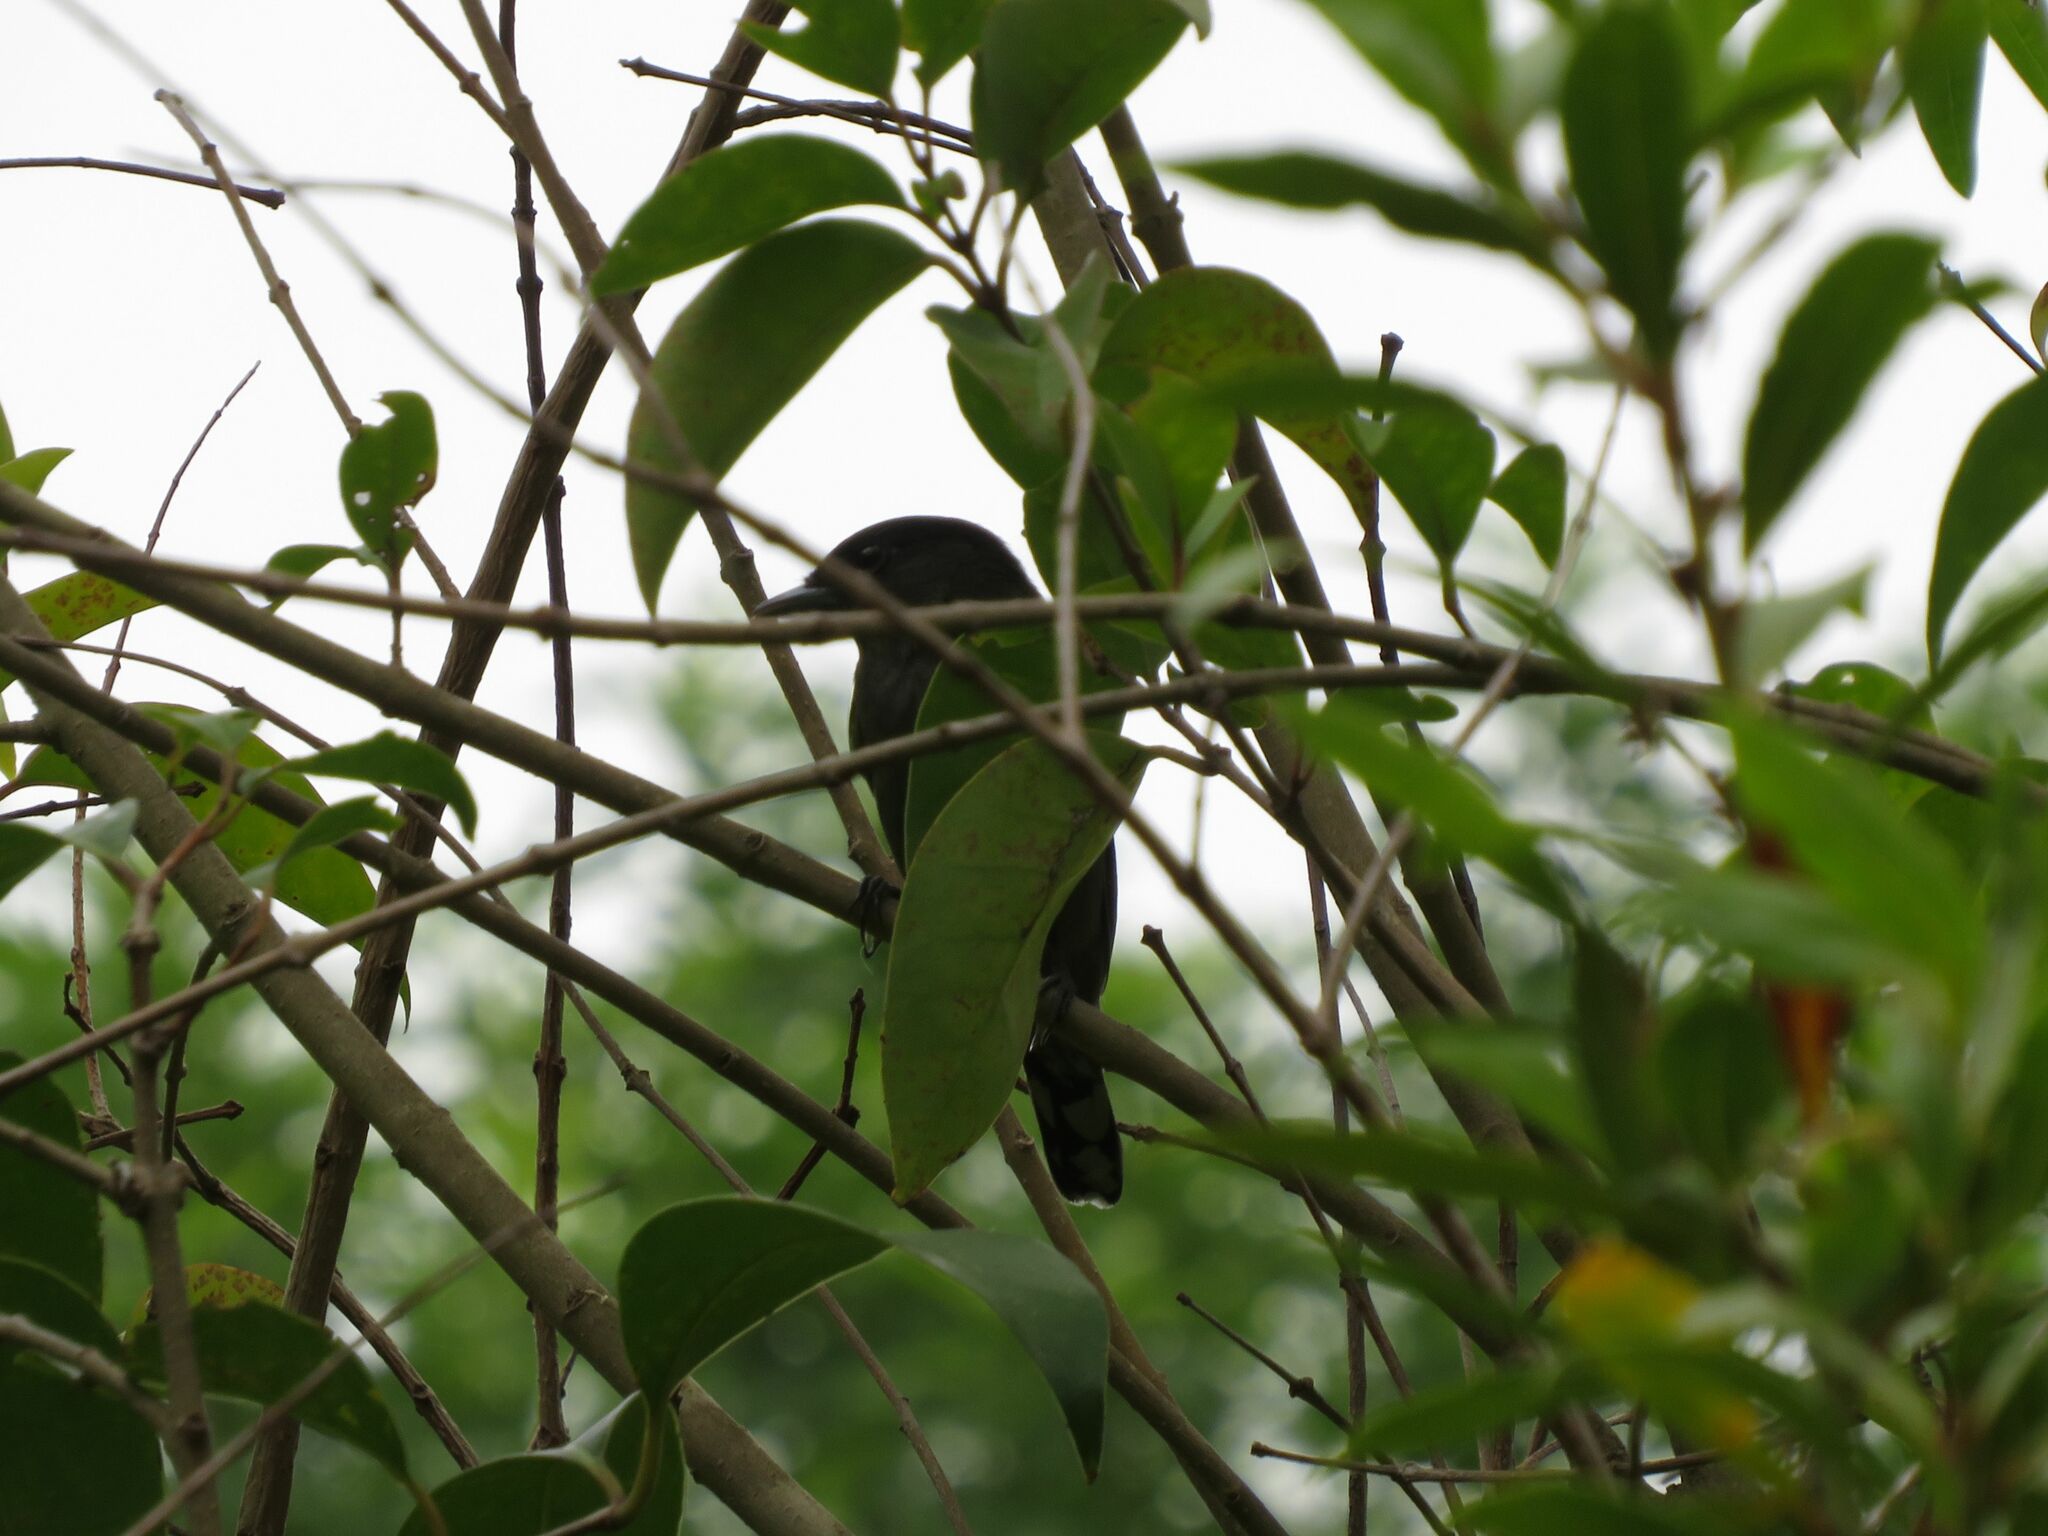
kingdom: Animalia
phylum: Chordata
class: Aves
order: Passeriformes
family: Cotingidae
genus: Pachyramphus
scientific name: Pachyramphus polychopterus
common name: White-winged becard
